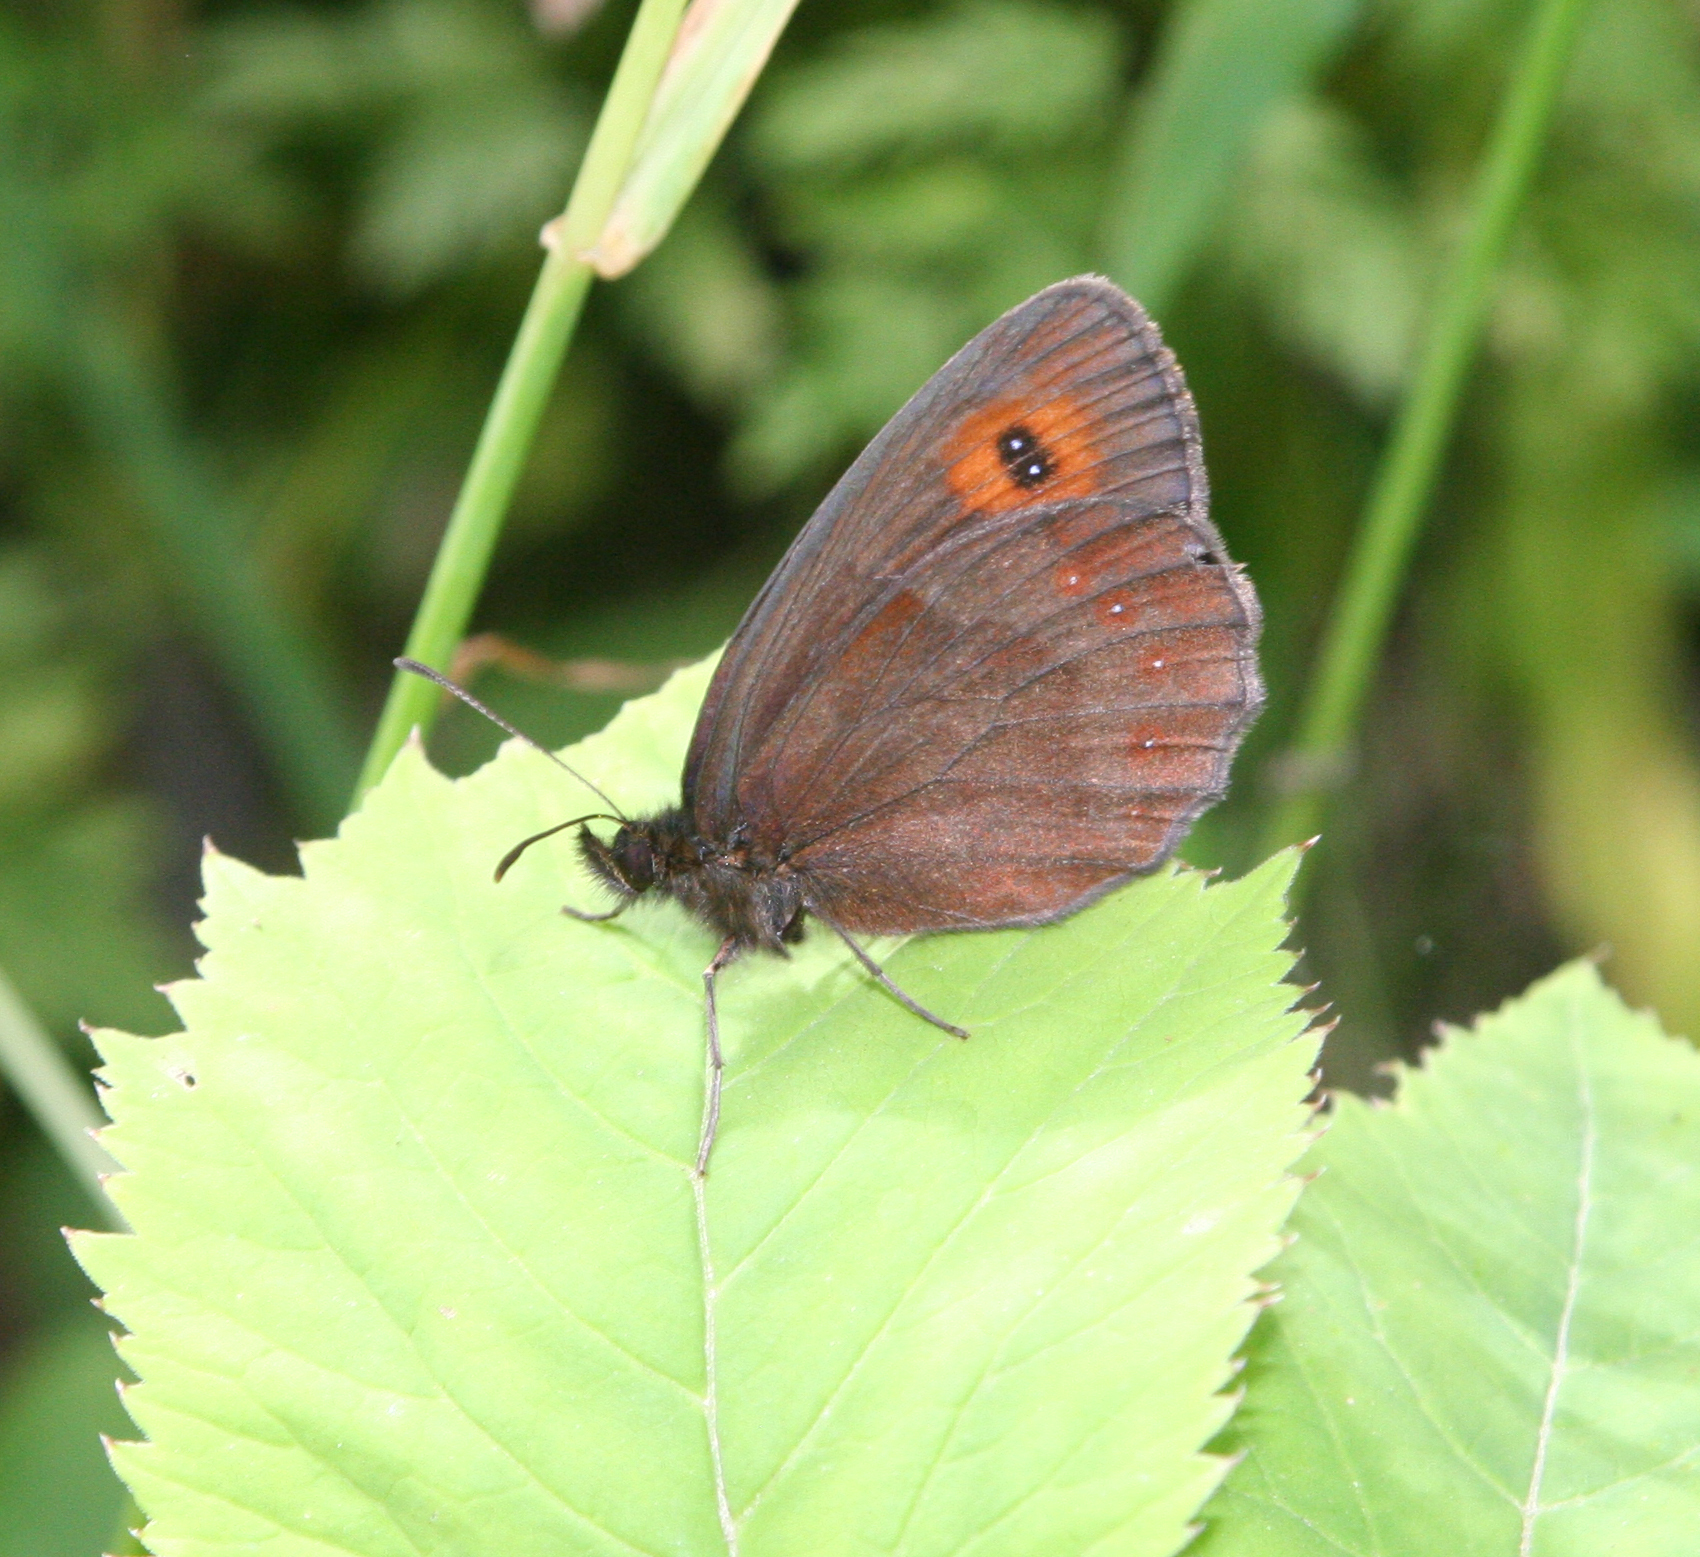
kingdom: Animalia
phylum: Arthropoda
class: Insecta
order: Lepidoptera
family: Nymphalidae
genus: Erebia
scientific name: Erebia aethiops
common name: Scotch argus
